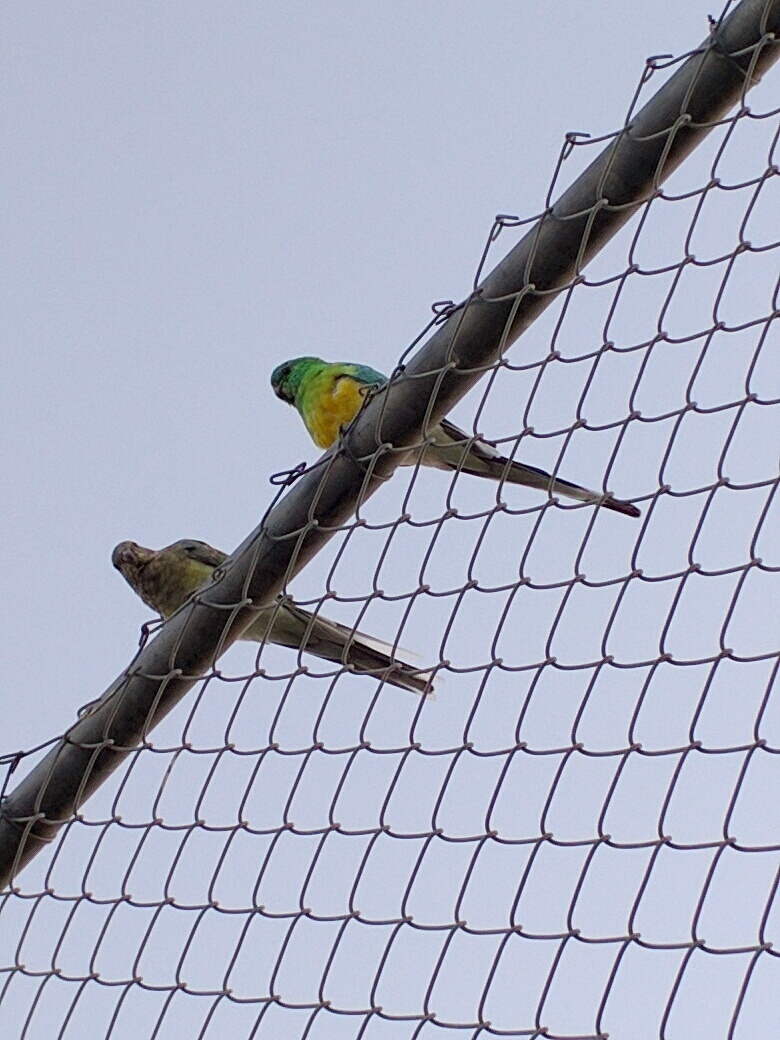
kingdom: Animalia
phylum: Chordata
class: Aves
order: Psittaciformes
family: Psittacidae
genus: Psephotus
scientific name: Psephotus haematonotus
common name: Red-rumped parrot
